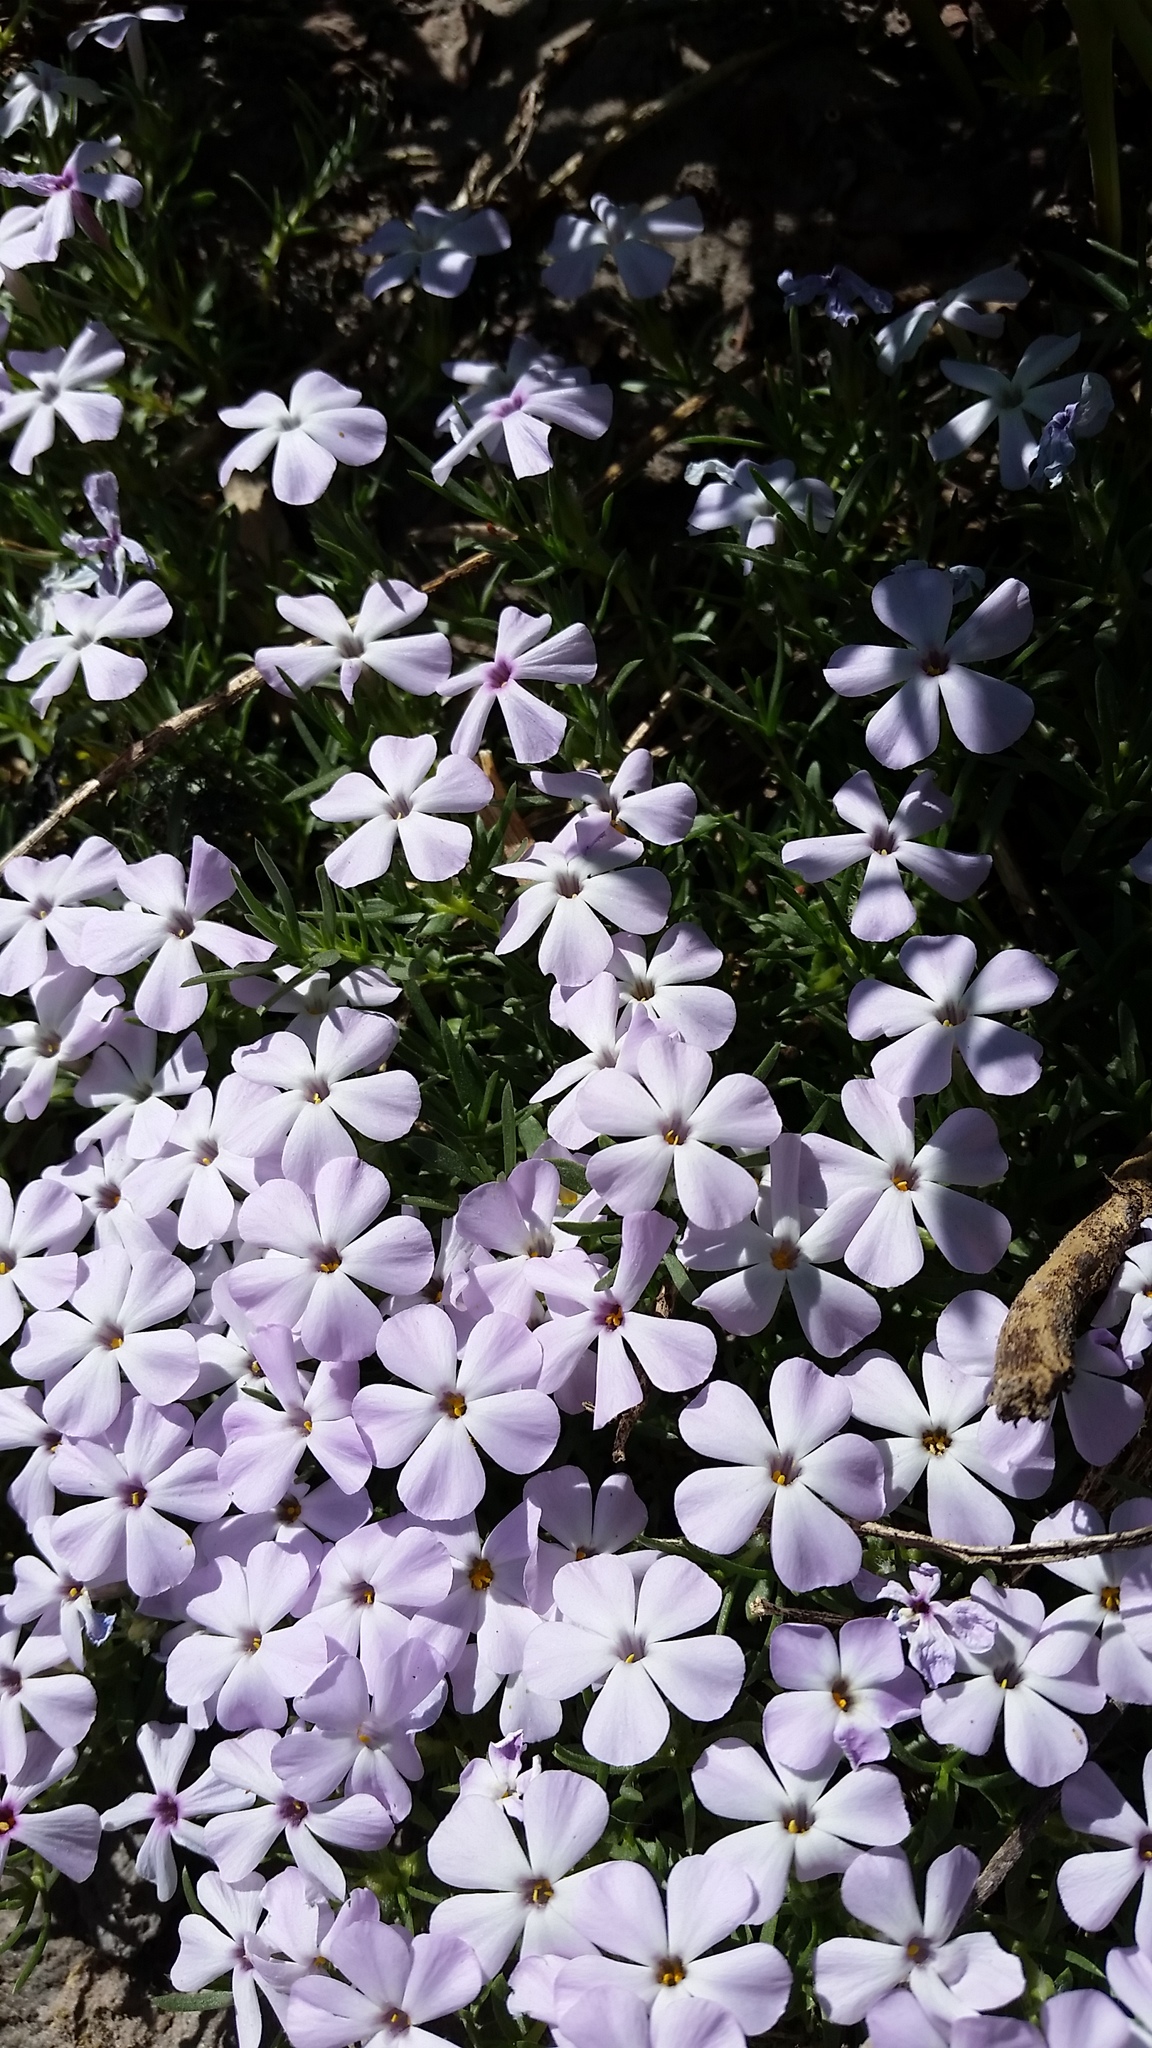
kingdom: Plantae
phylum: Tracheophyta
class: Magnoliopsida
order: Ericales
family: Polemoniaceae
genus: Phlox
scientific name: Phlox diffusa
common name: Mat phlox
